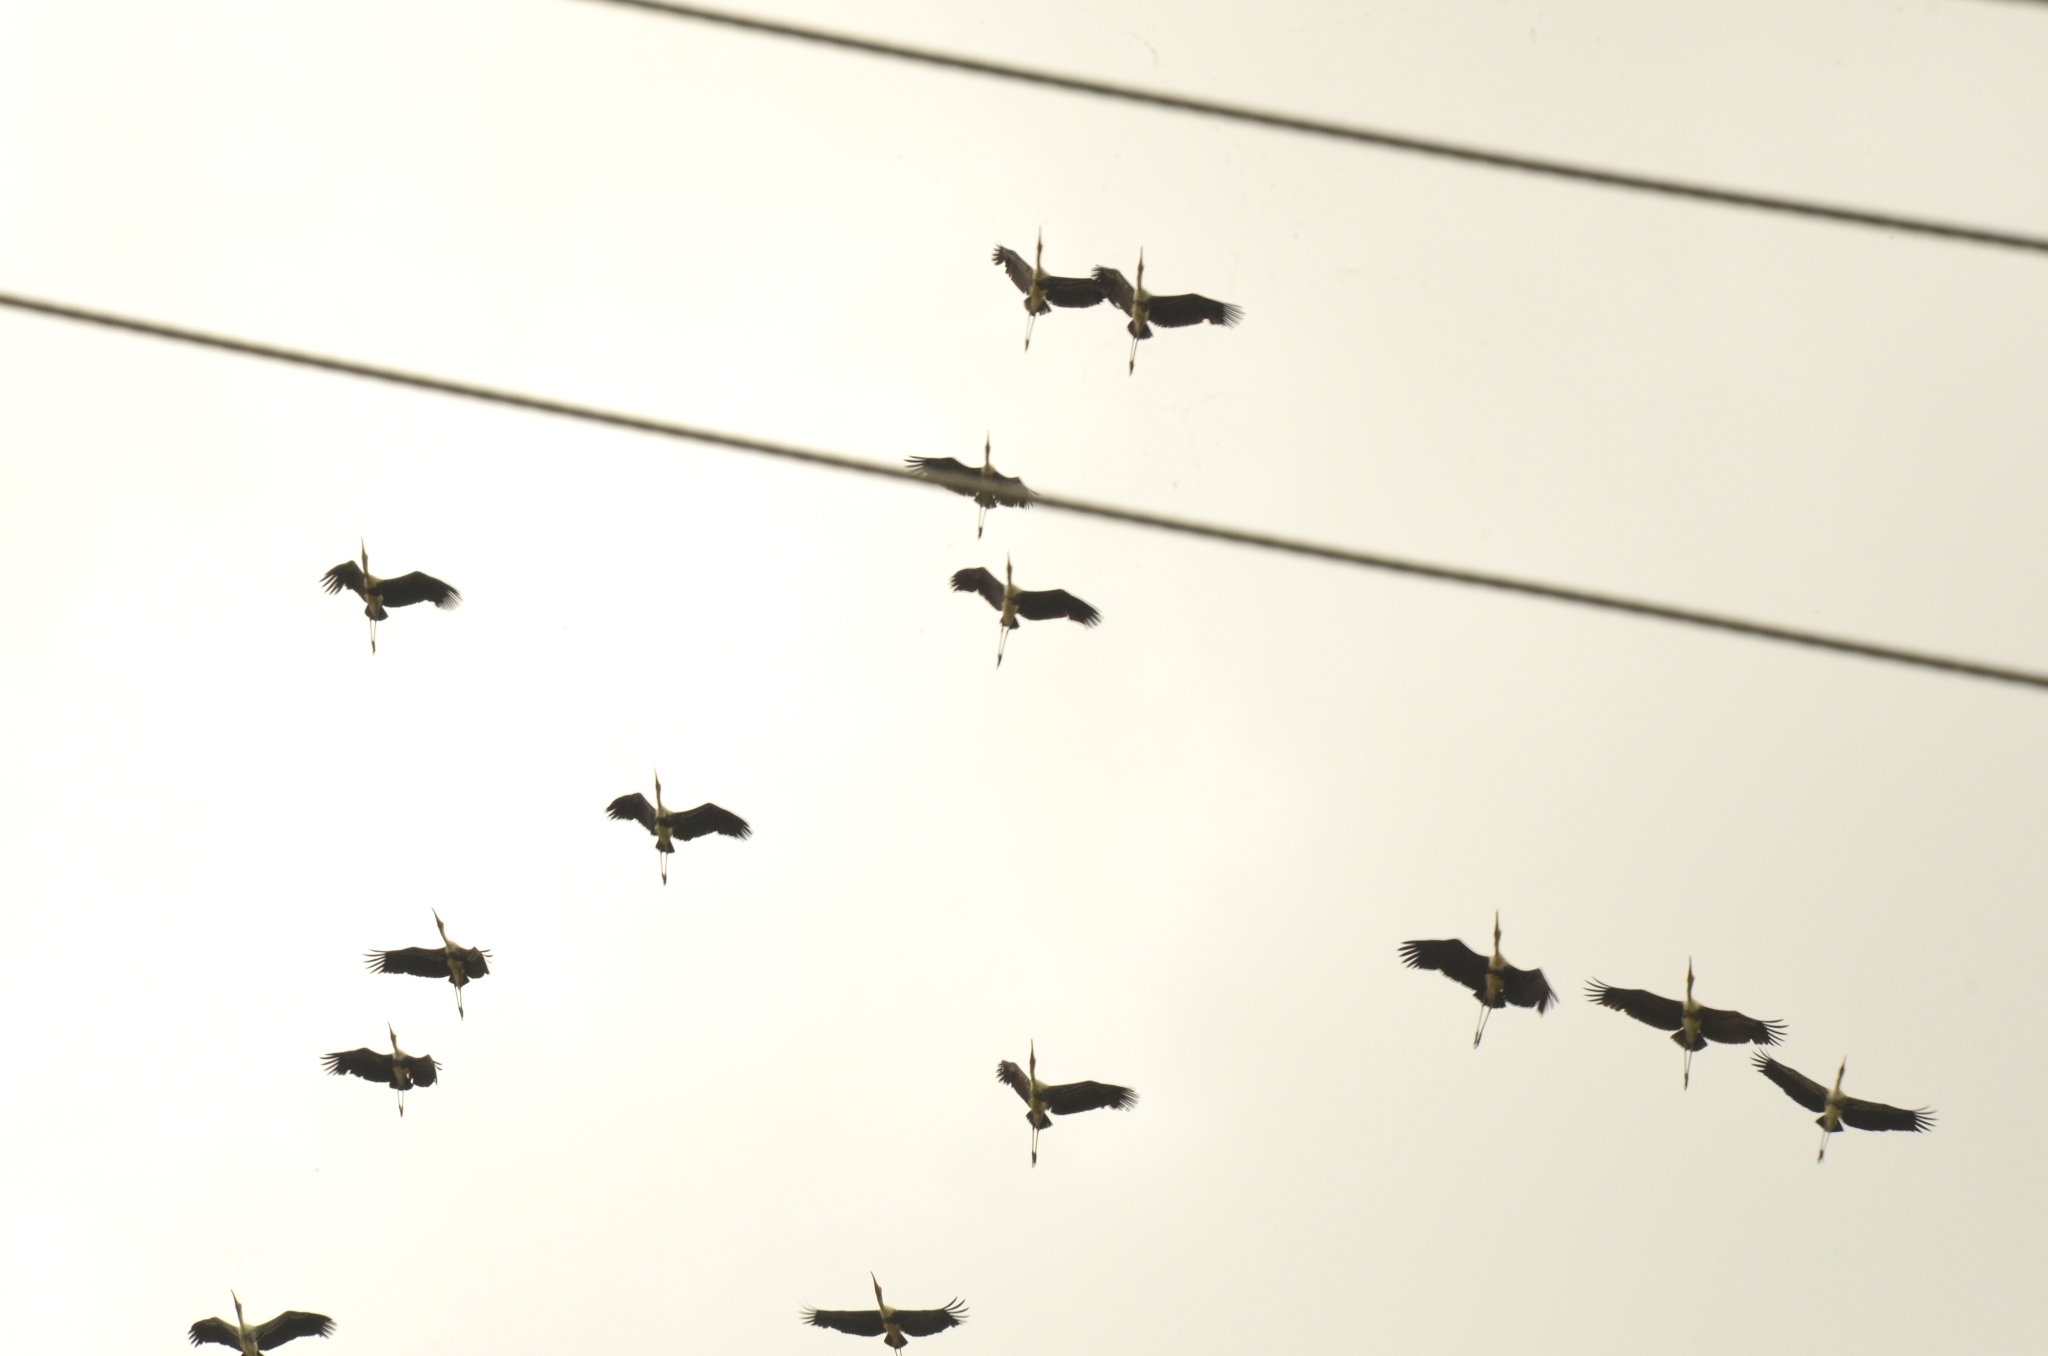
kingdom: Animalia
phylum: Chordata
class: Aves
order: Ciconiiformes
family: Ciconiidae
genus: Mycteria
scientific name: Mycteria leucocephala
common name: Painted stork
